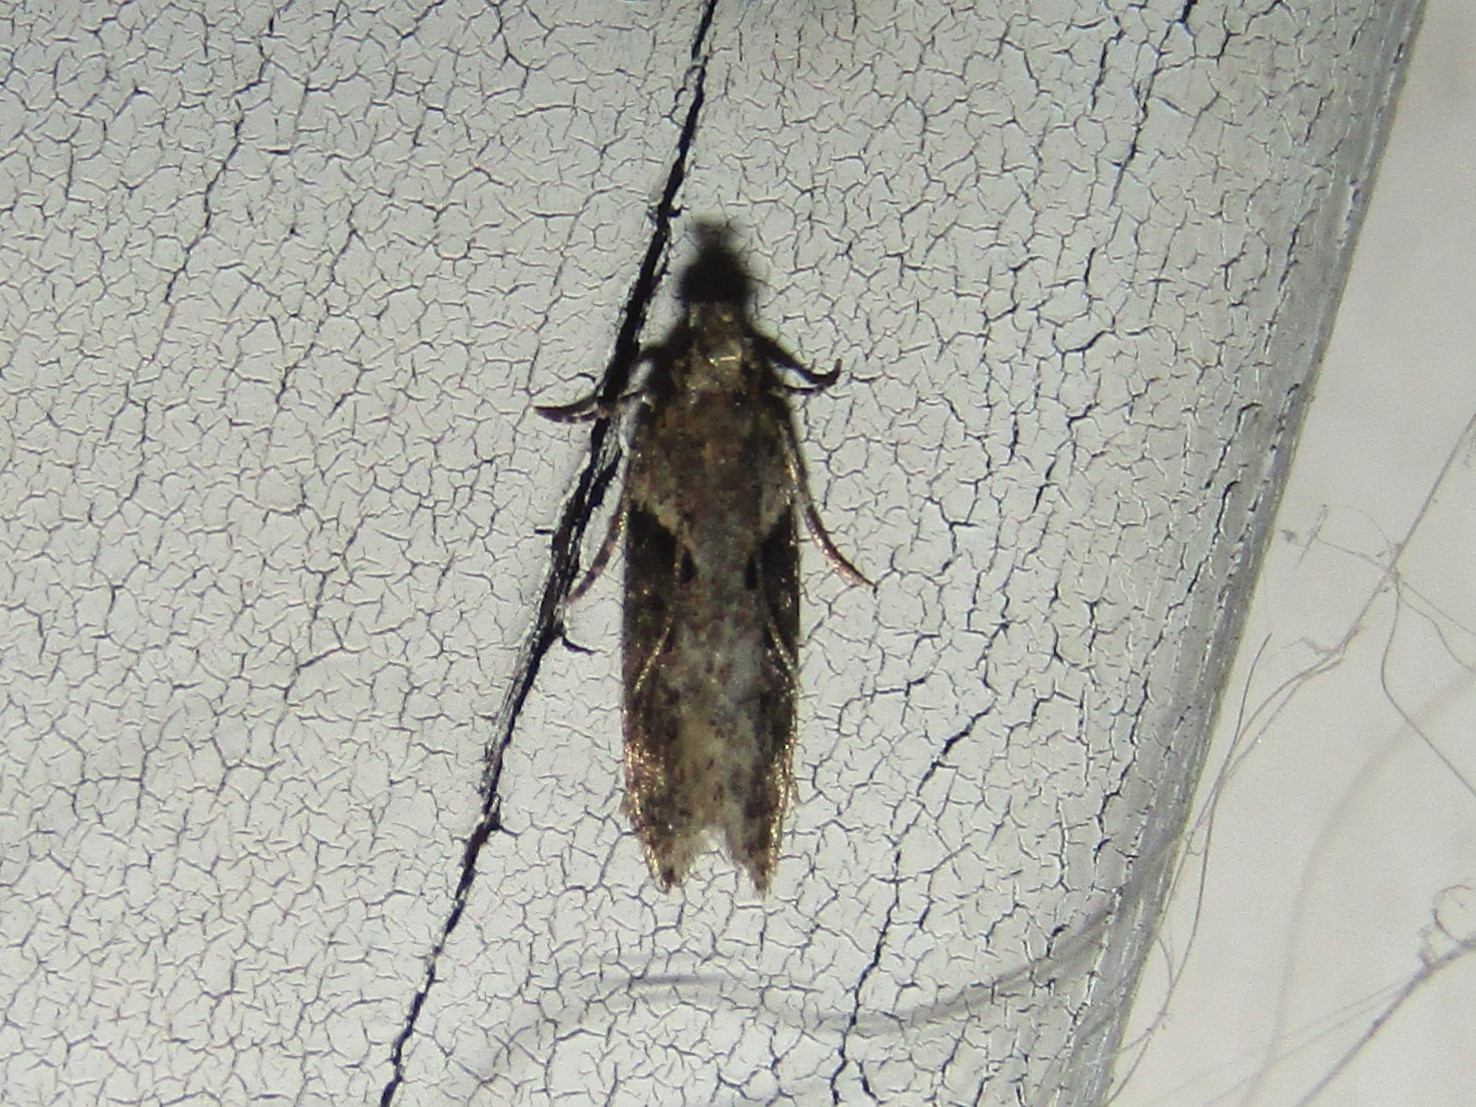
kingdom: Animalia
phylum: Arthropoda
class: Insecta
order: Lepidoptera
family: Gelechiidae
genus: Chionodes
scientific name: Chionodes mediofuscella
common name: Black-smudged chionodes moth
